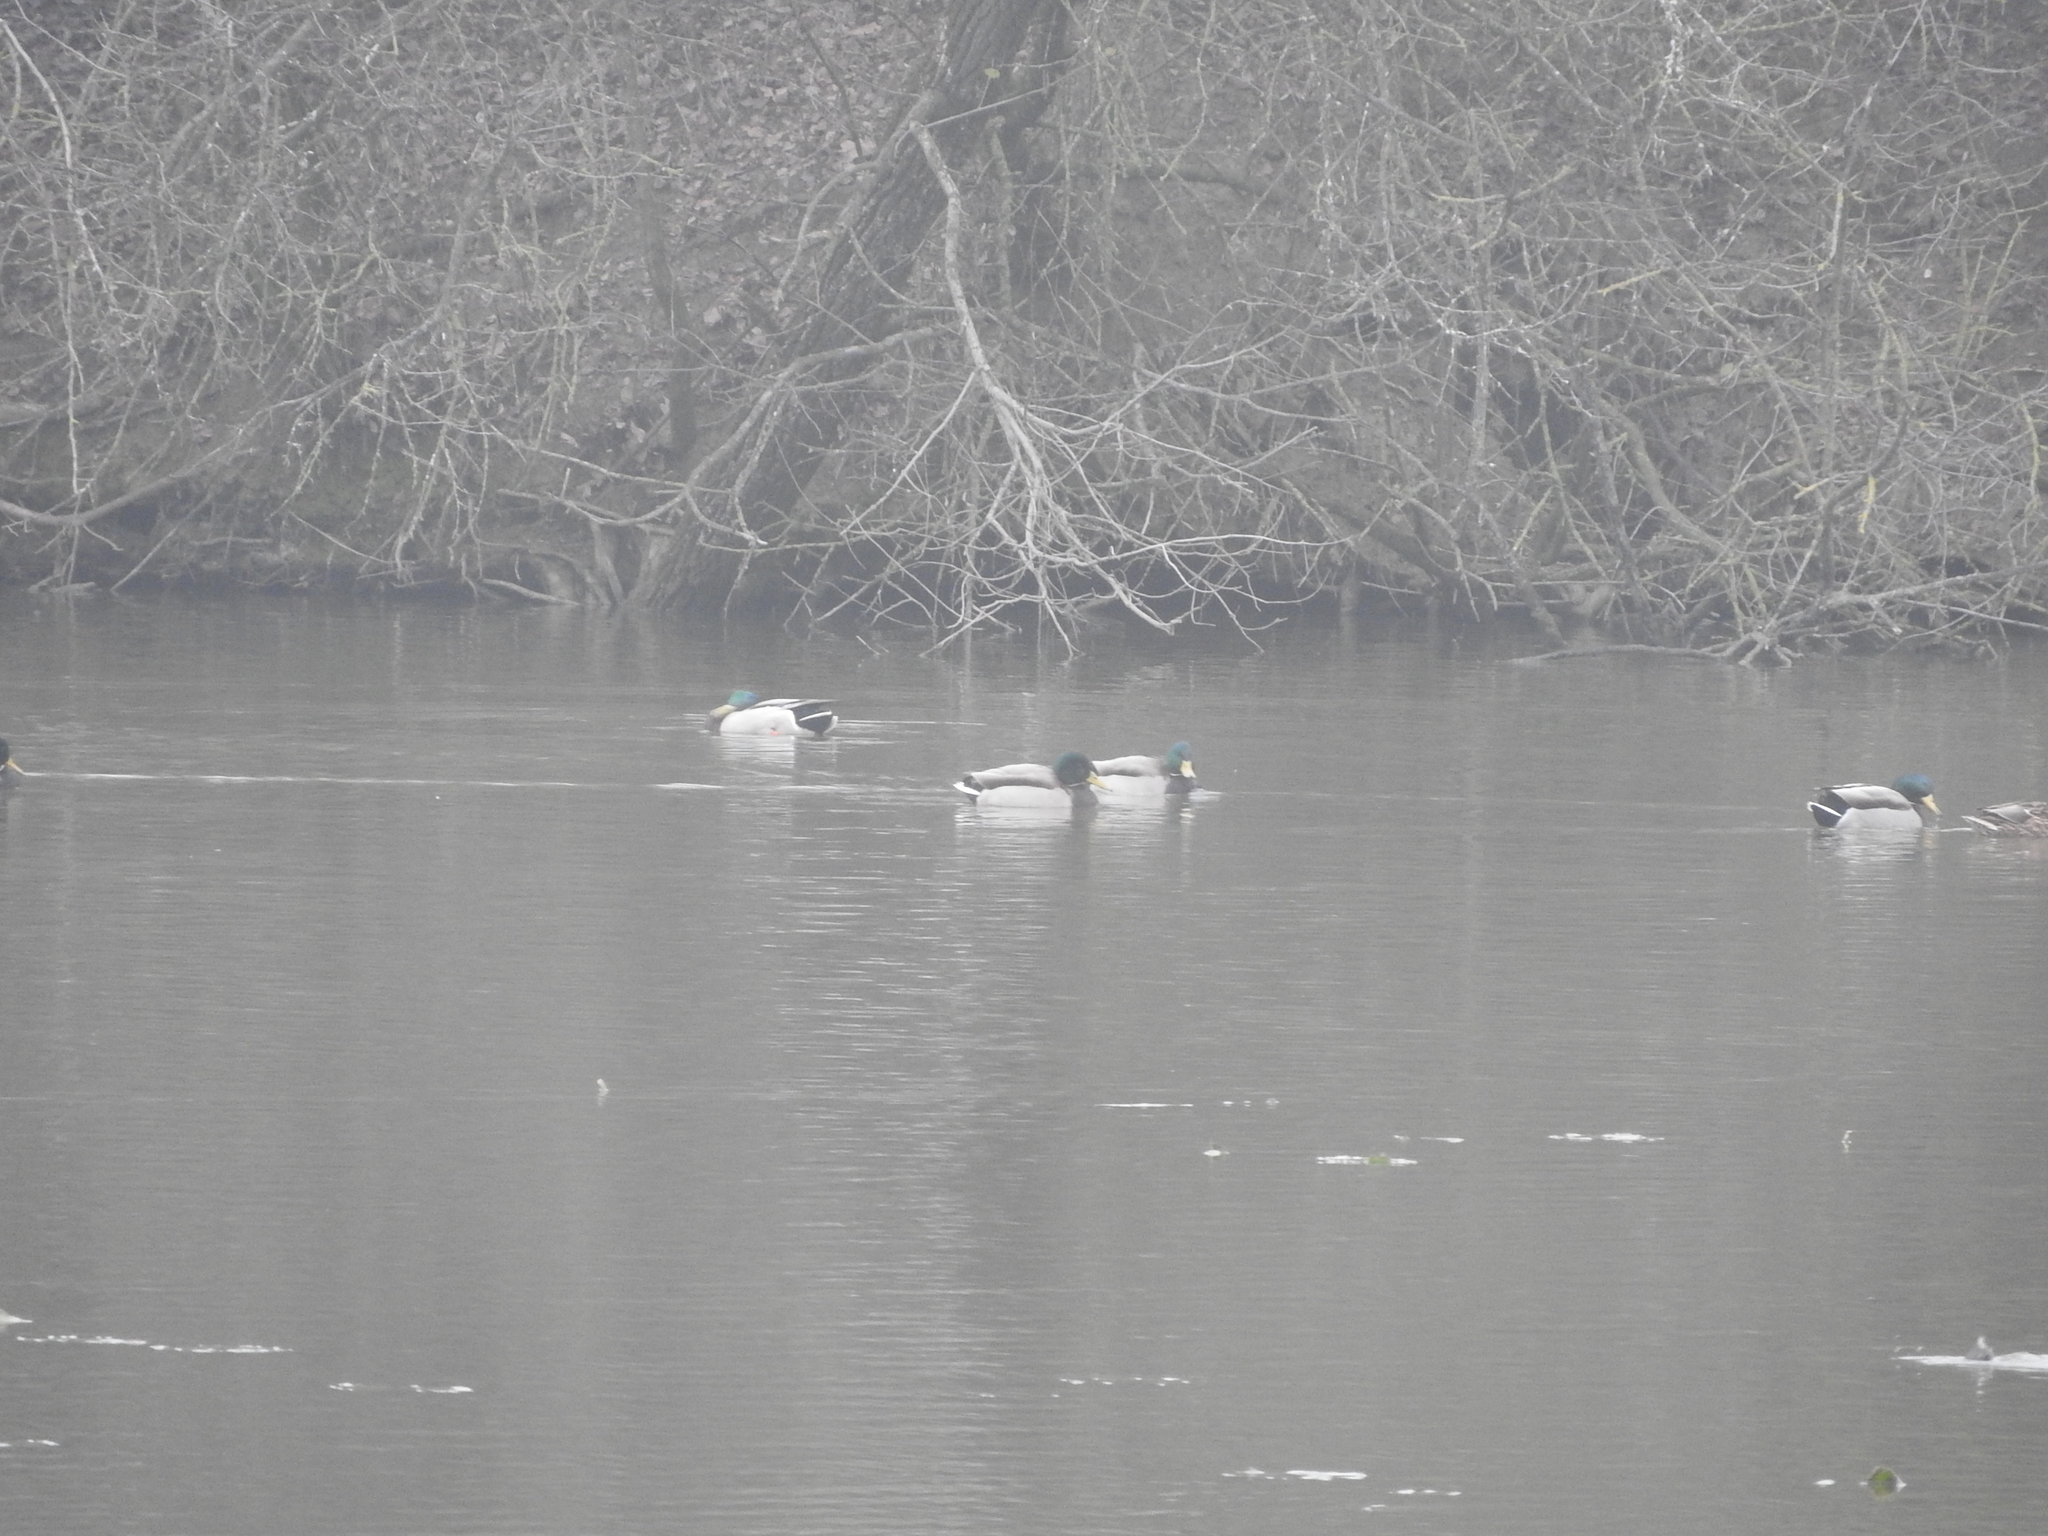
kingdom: Animalia
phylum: Chordata
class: Aves
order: Anseriformes
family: Anatidae
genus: Anas
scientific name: Anas platyrhynchos
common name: Mallard
